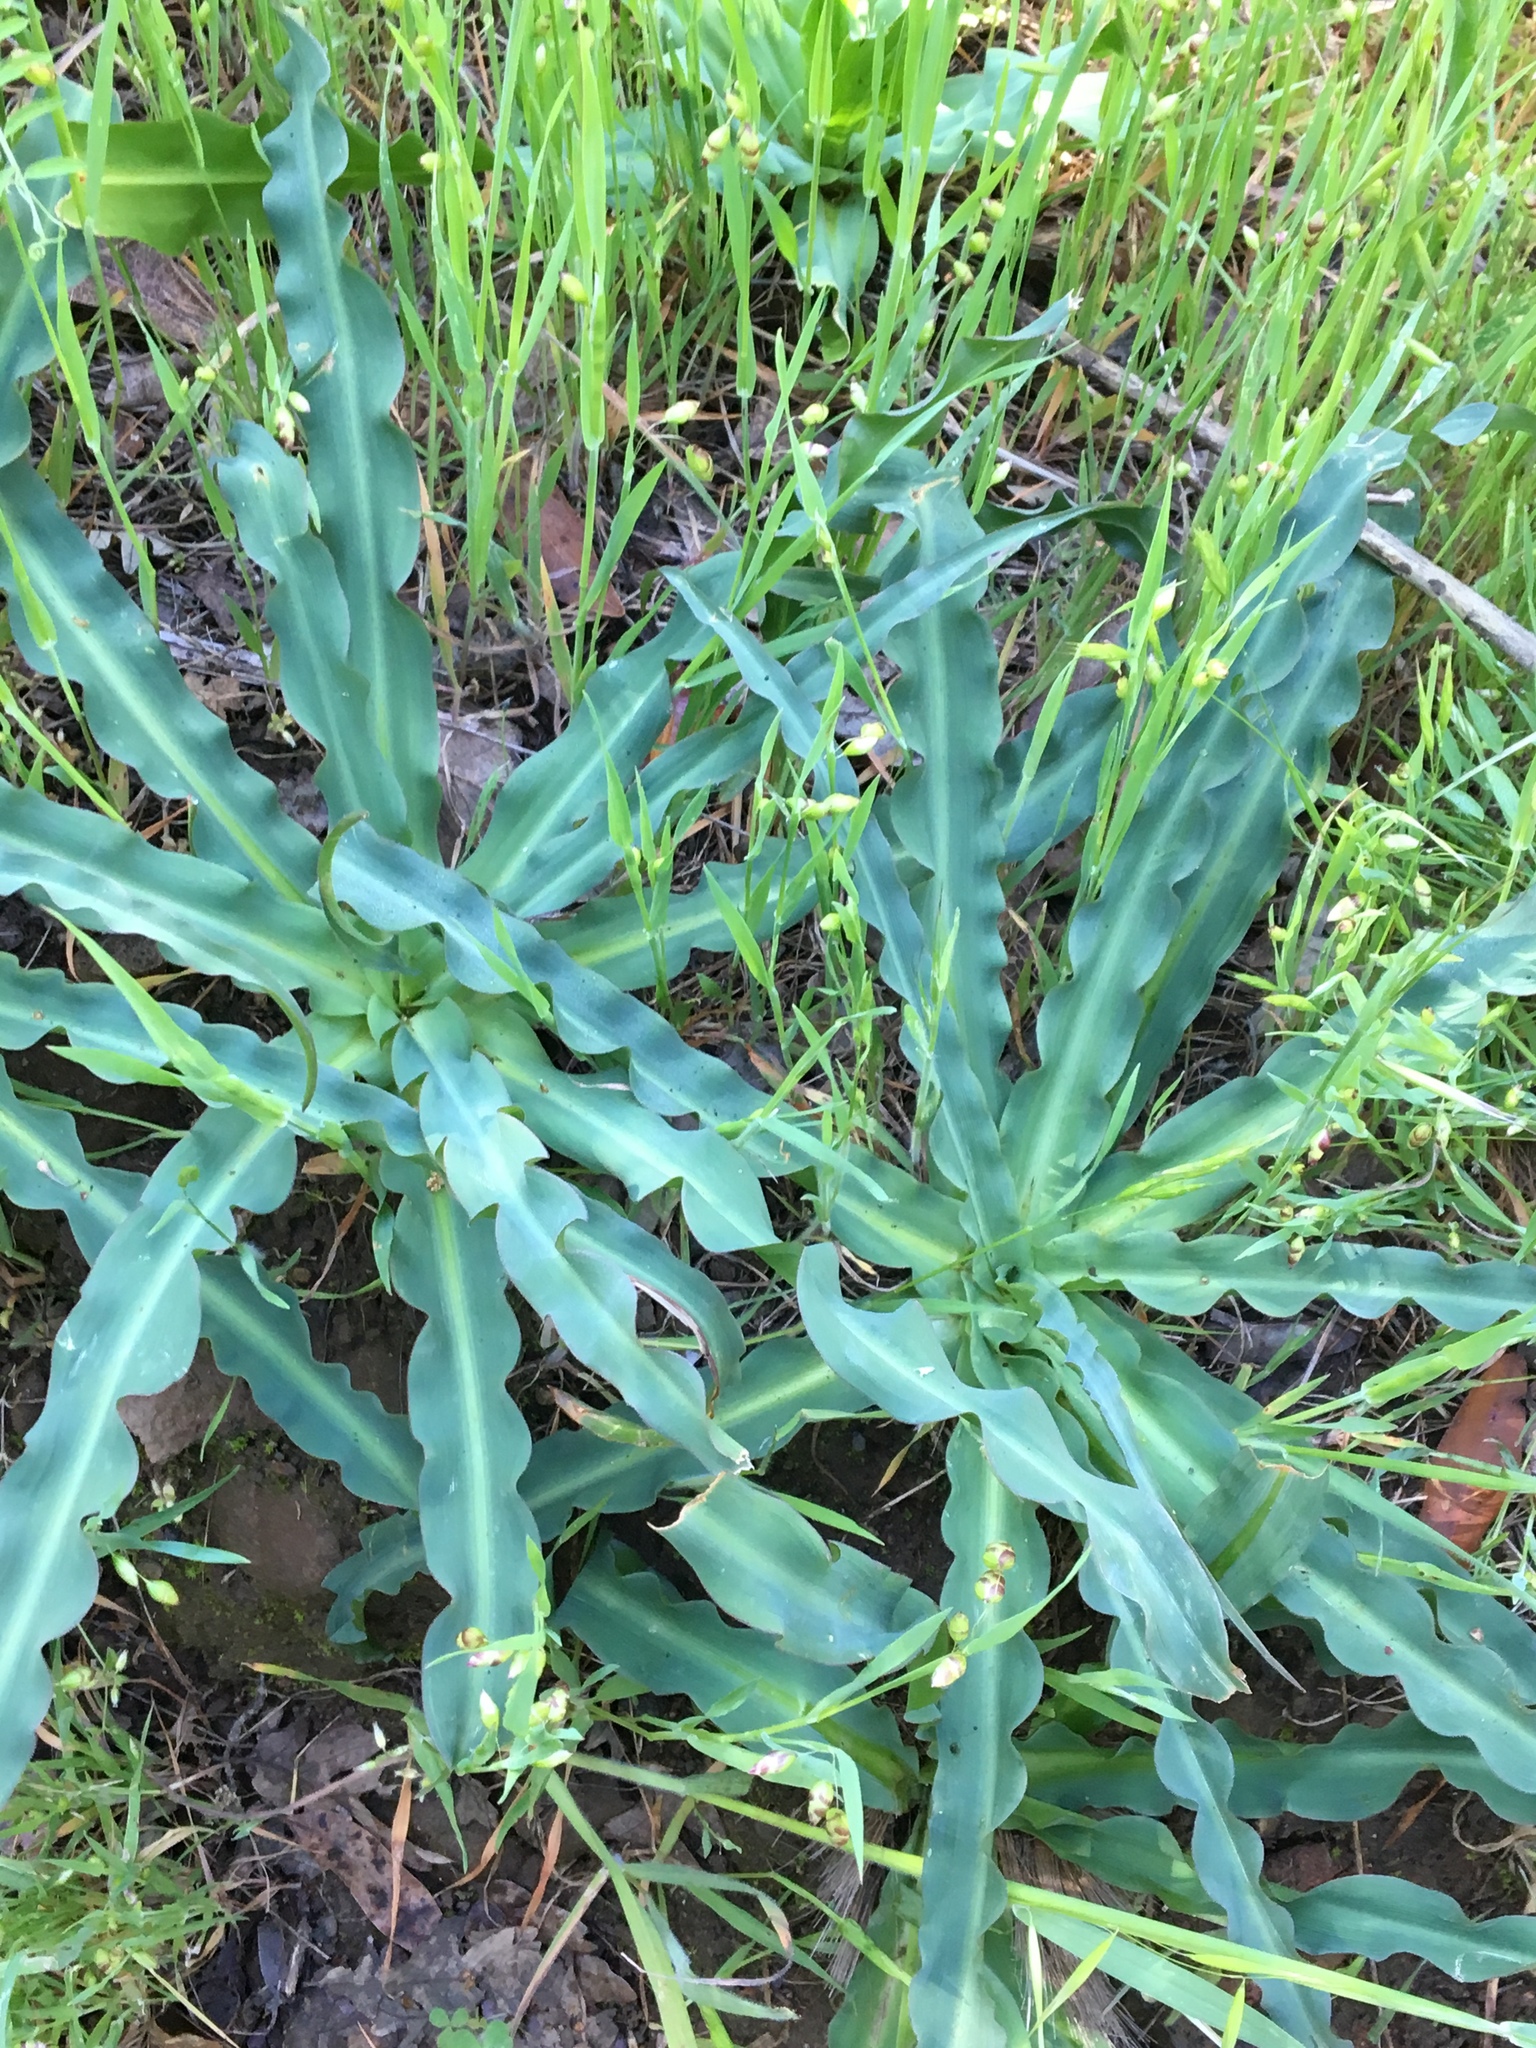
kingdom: Plantae
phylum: Tracheophyta
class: Liliopsida
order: Asparagales
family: Asparagaceae
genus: Chlorogalum
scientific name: Chlorogalum pomeridianum
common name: Amole
